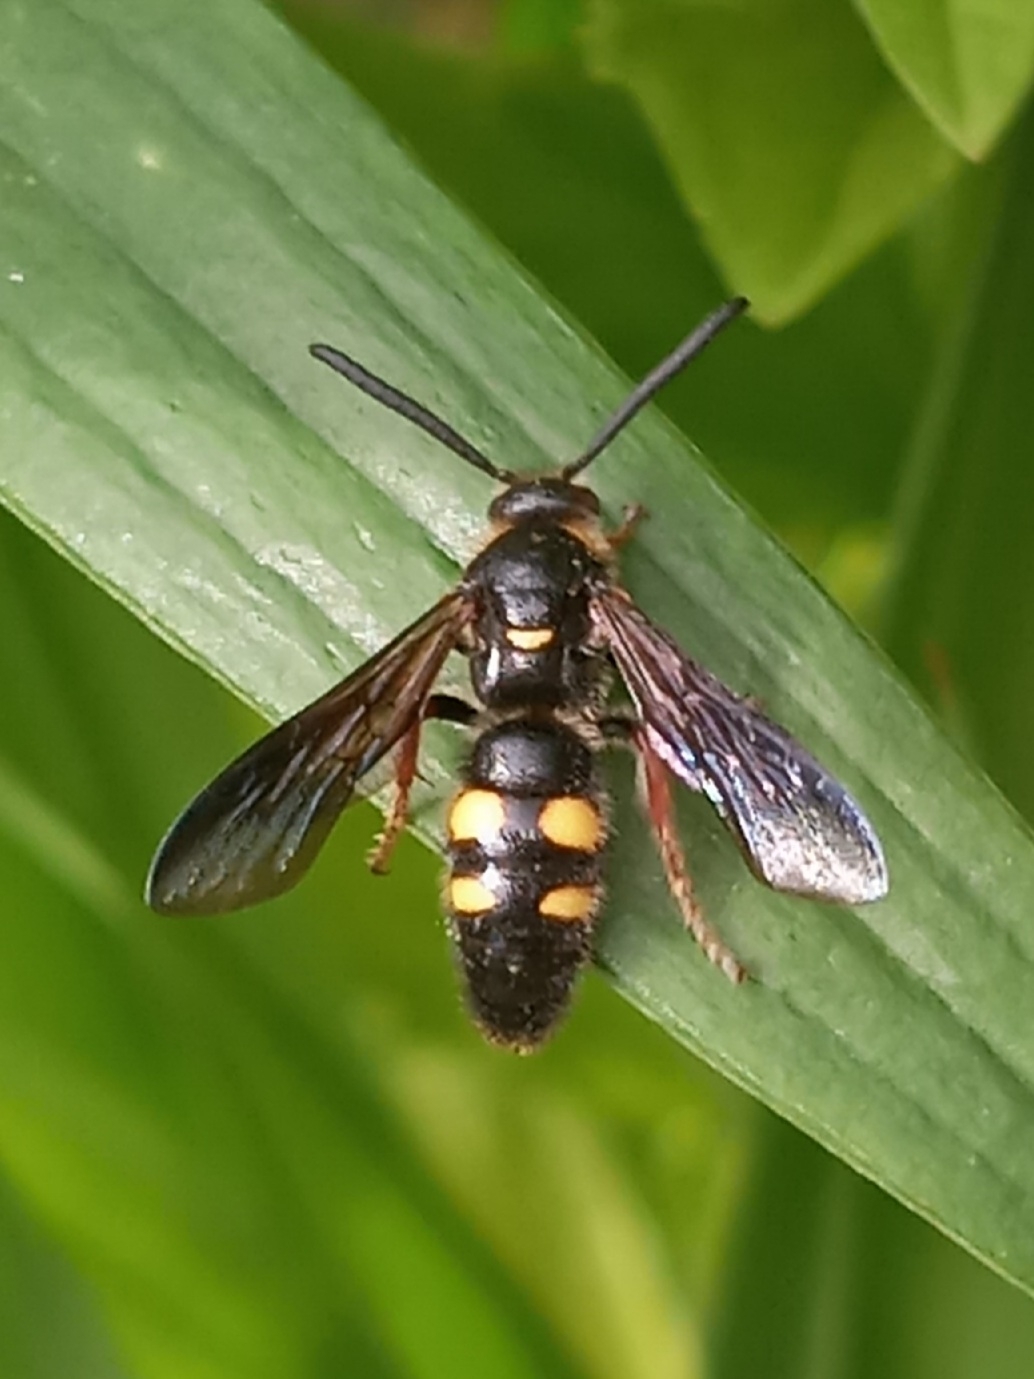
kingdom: Animalia
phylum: Arthropoda
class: Insecta
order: Hymenoptera
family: Scoliidae
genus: Scolia
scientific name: Scolia nobilitata
